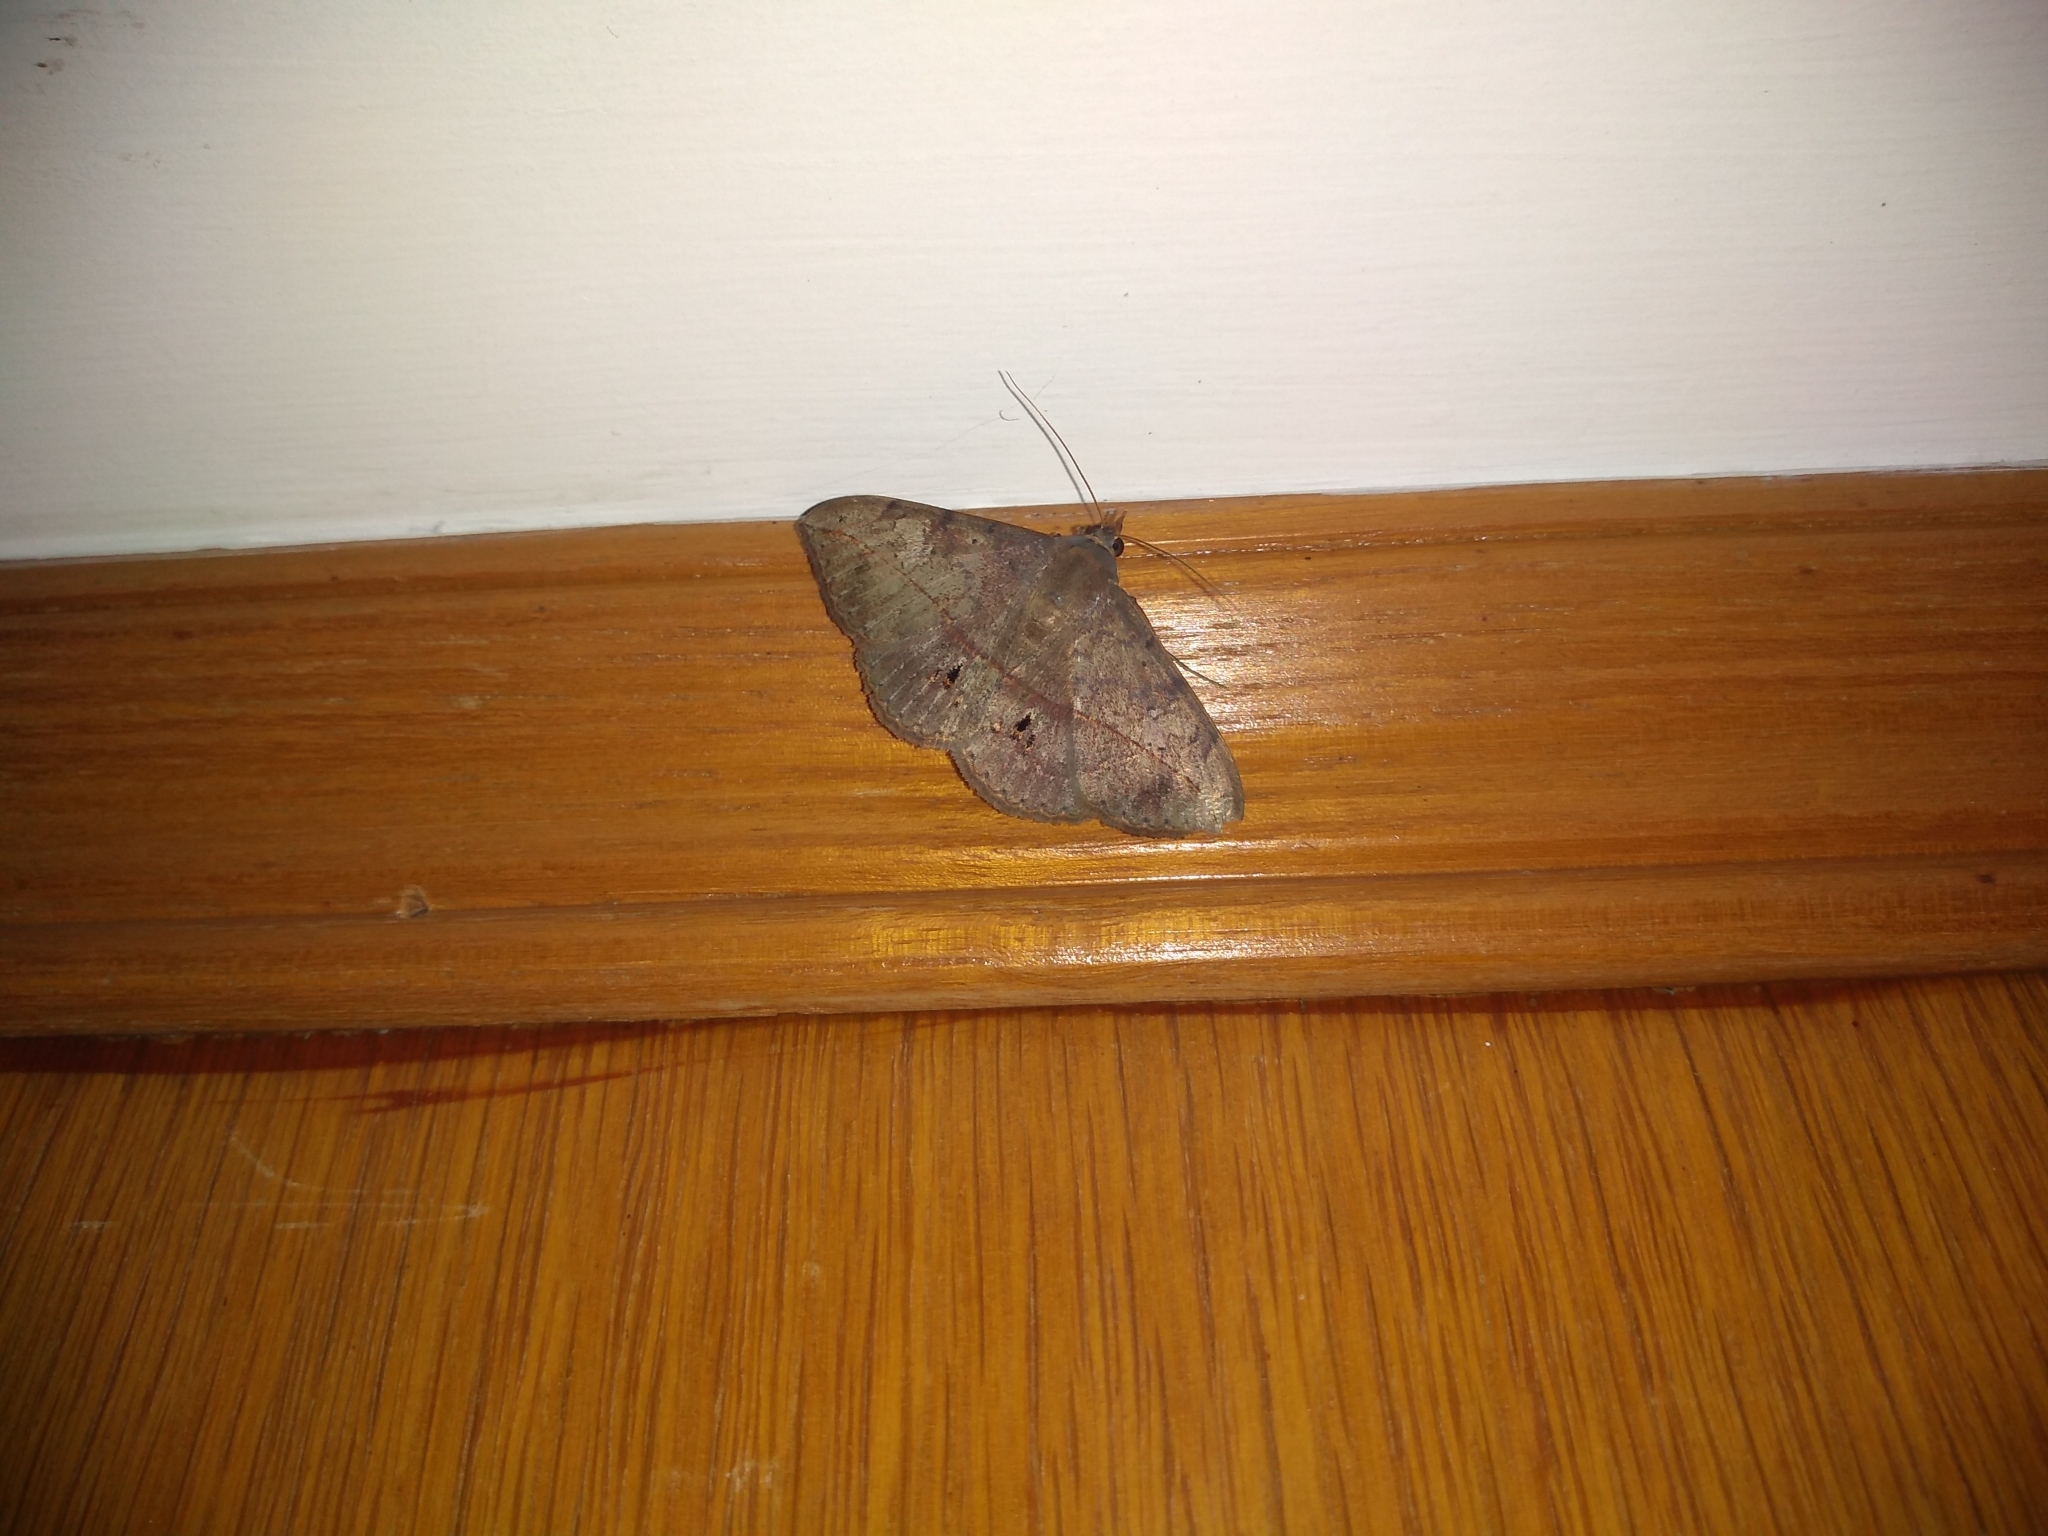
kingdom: Animalia
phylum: Arthropoda
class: Insecta
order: Lepidoptera
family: Erebidae
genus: Anticarsia
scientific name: Anticarsia gemmatalis
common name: Cutworm moth
